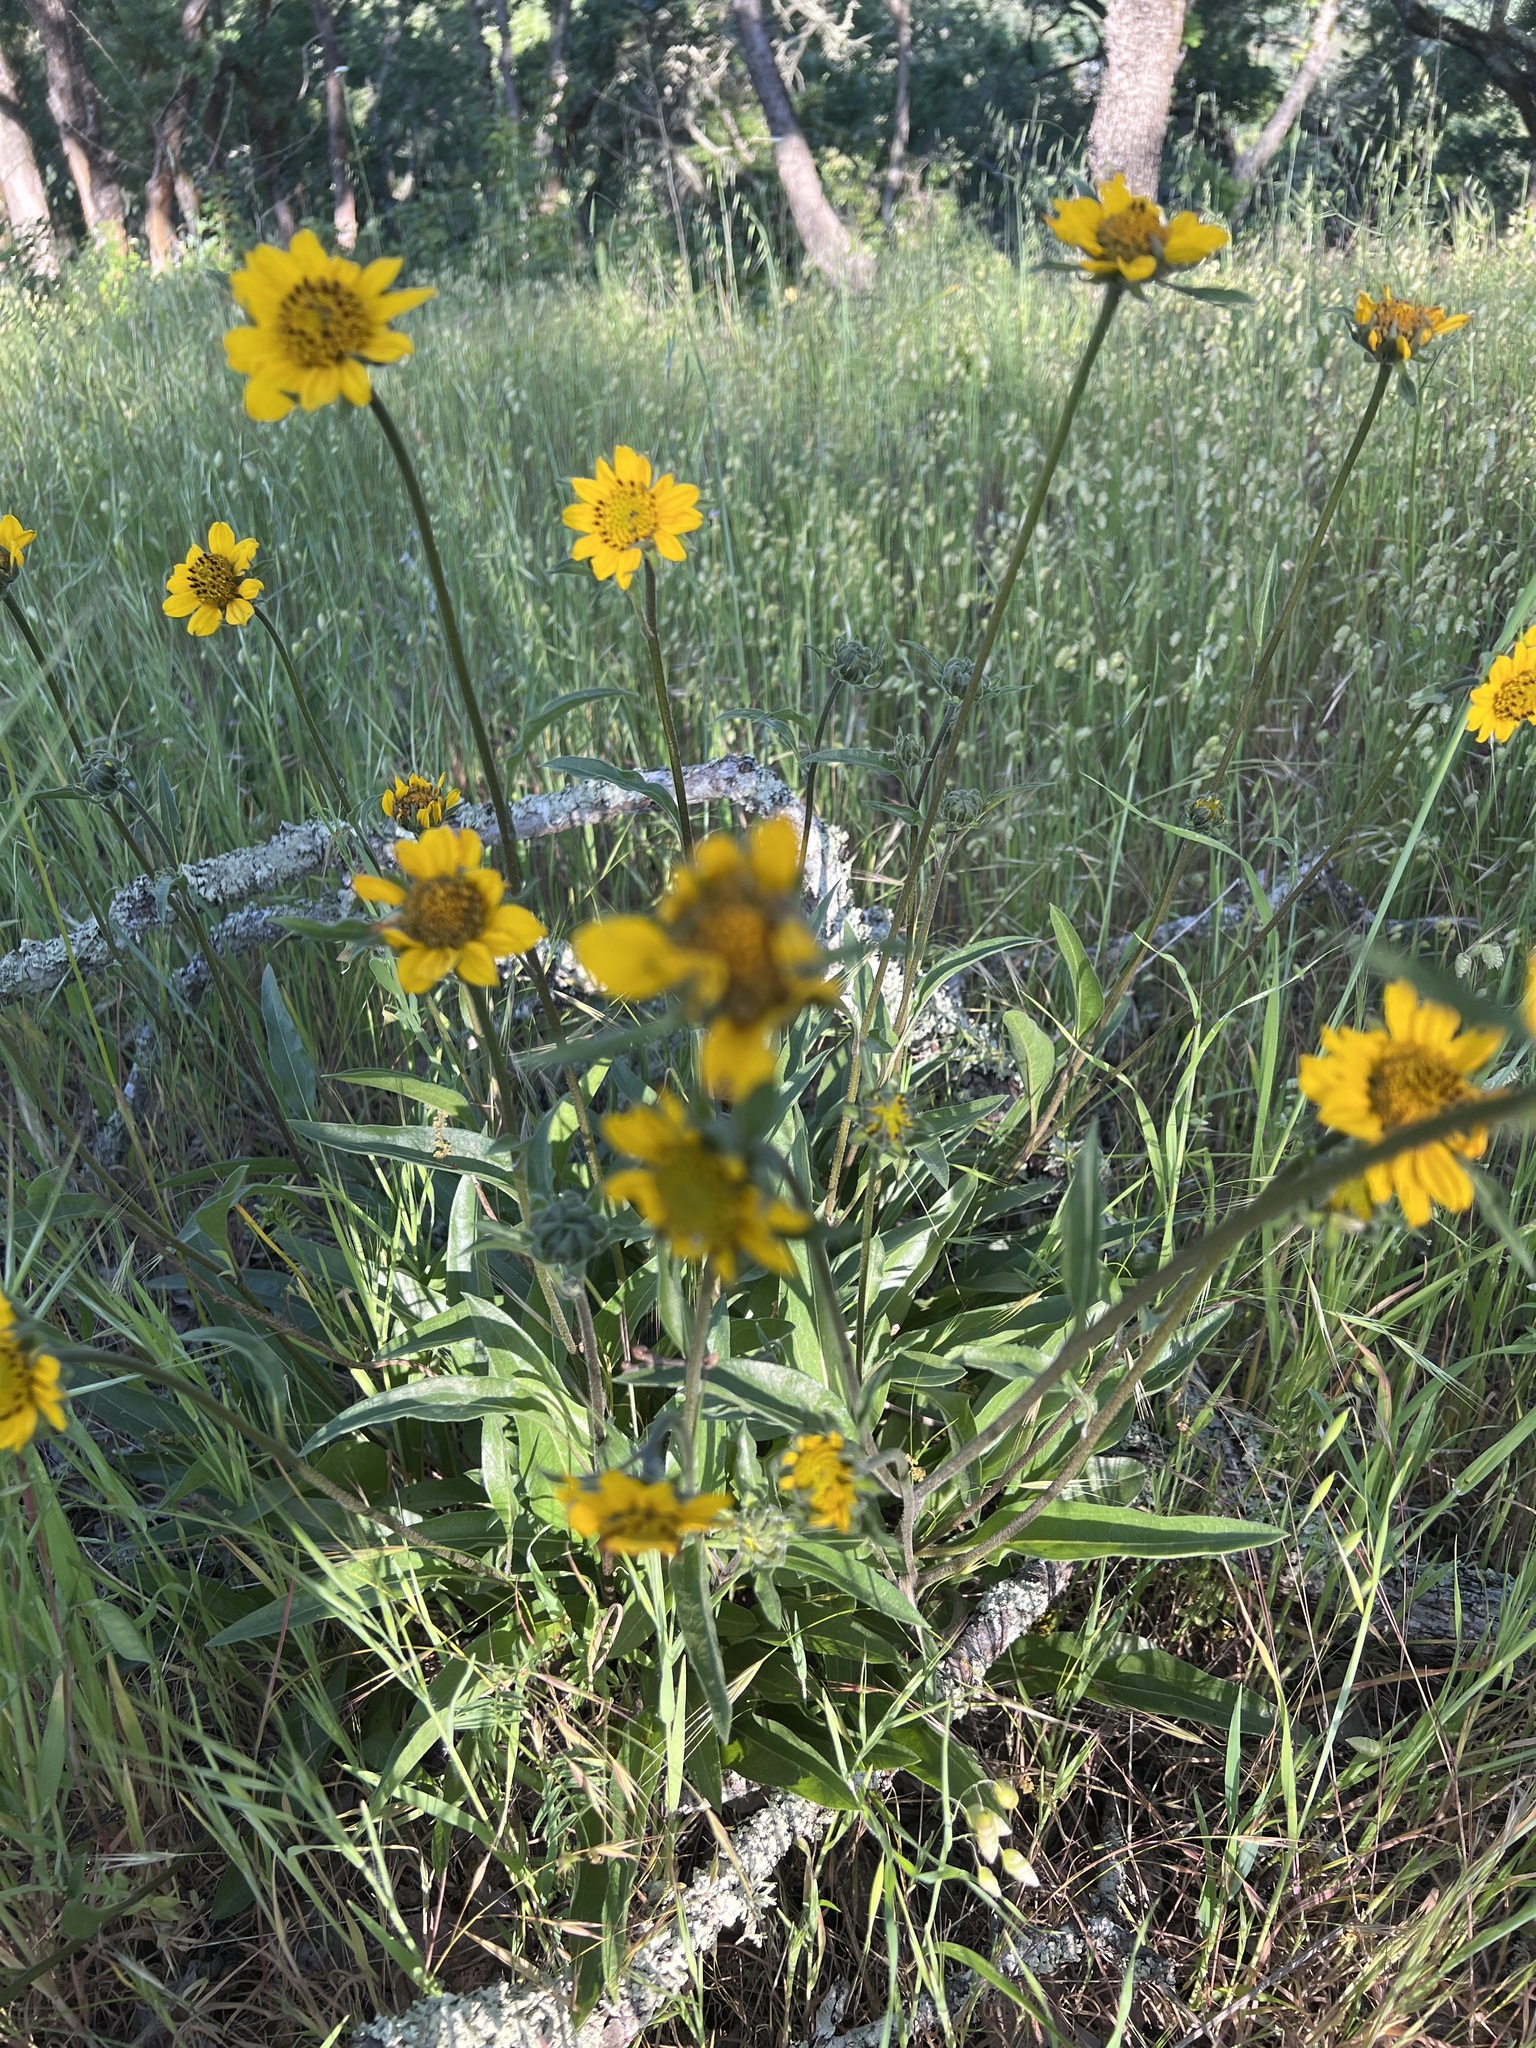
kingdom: Plantae
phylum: Tracheophyta
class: Magnoliopsida
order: Asterales
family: Asteraceae
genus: Helianthella
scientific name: Helianthella californica
